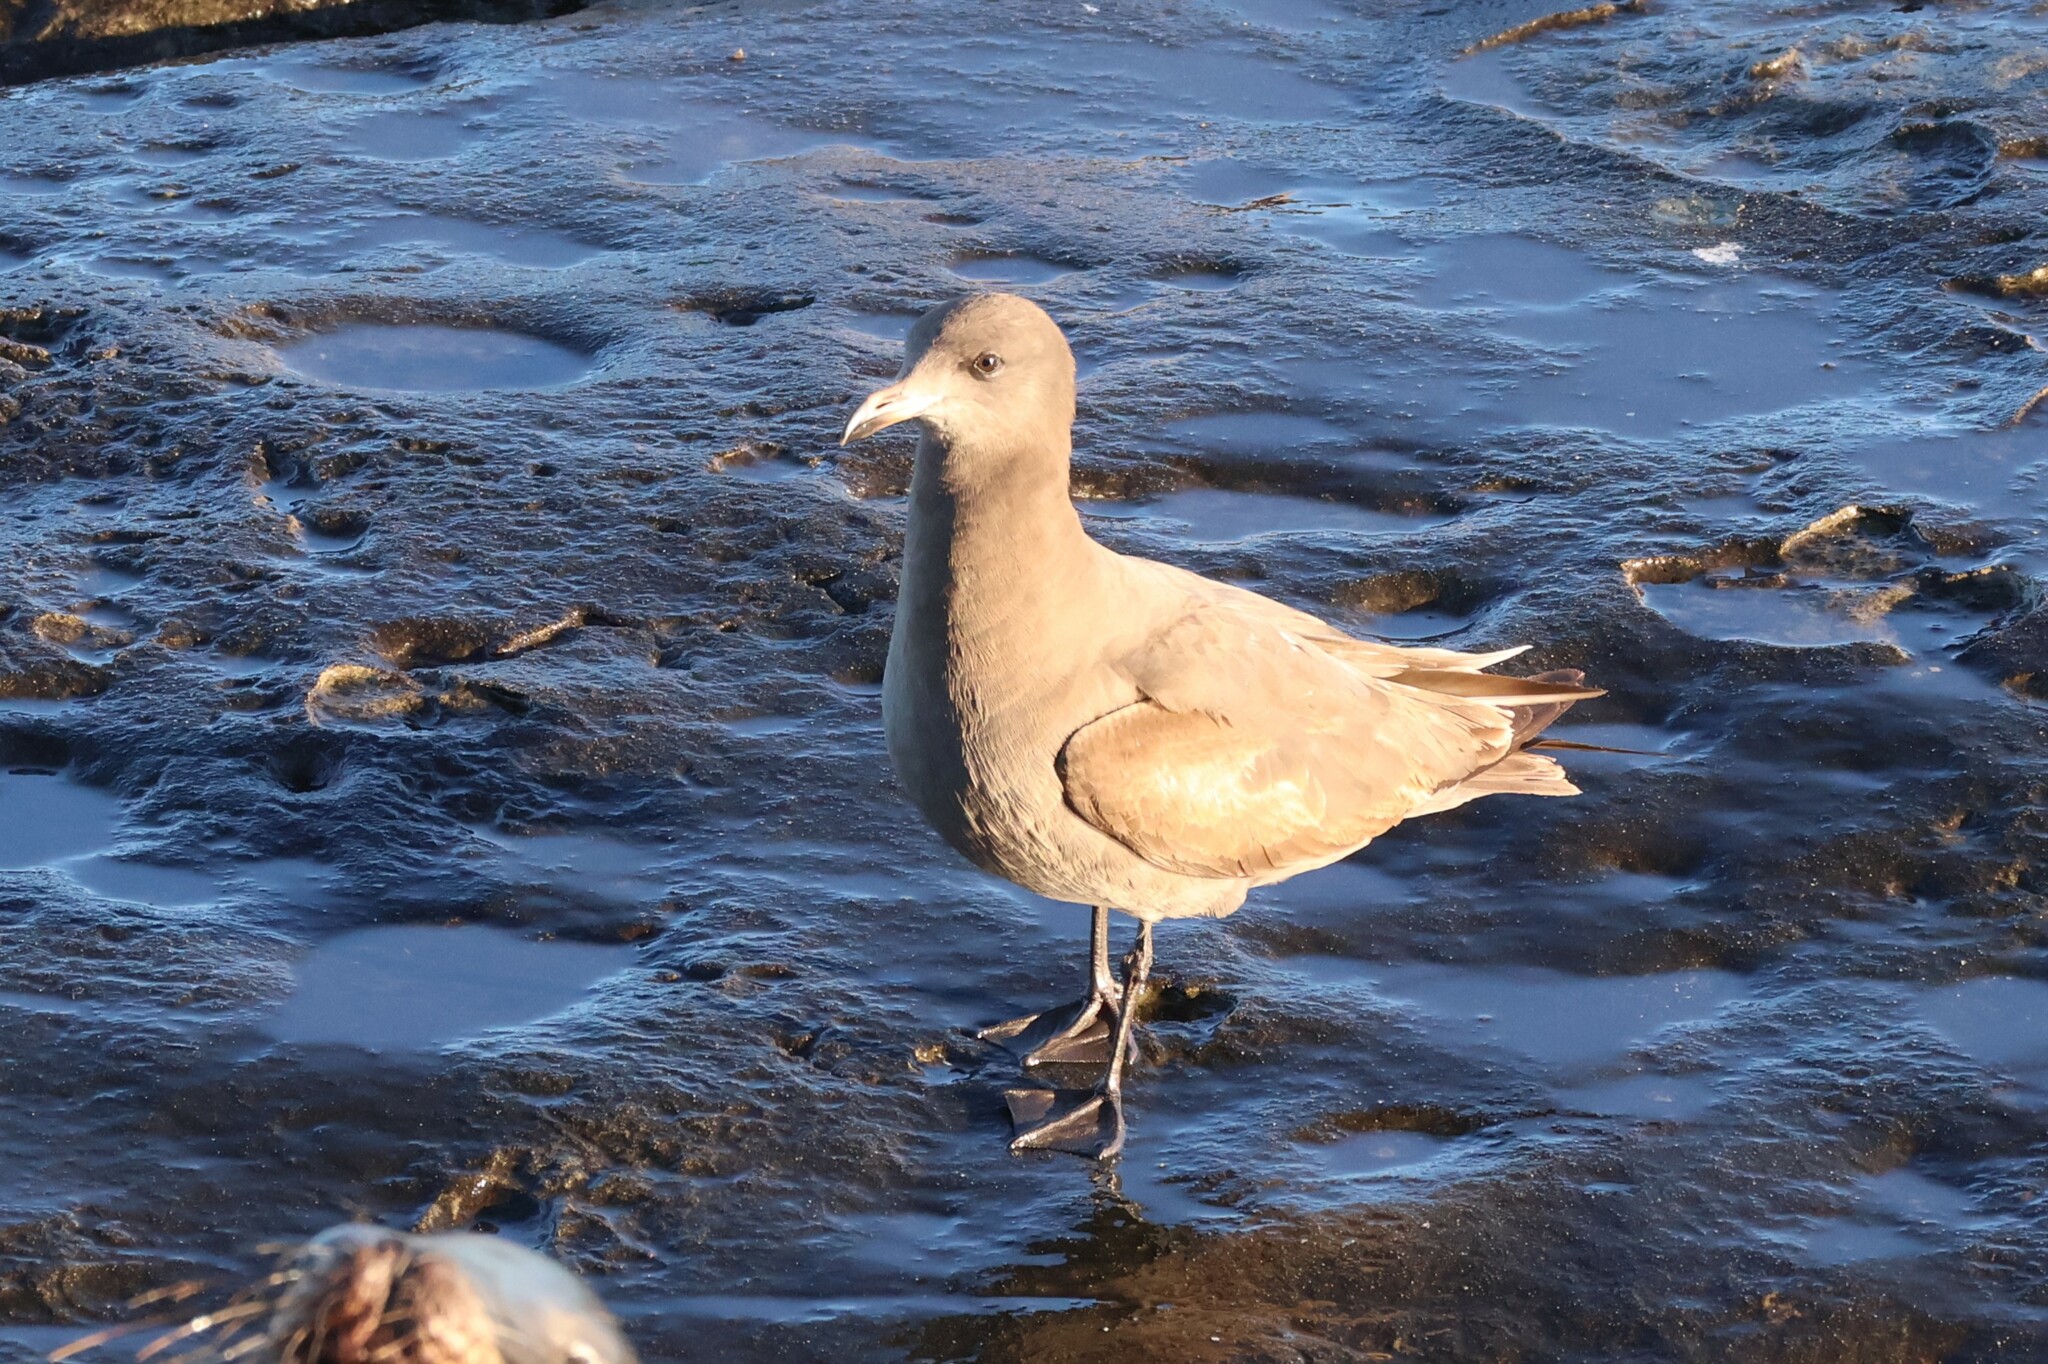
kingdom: Animalia
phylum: Chordata
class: Aves
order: Charadriiformes
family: Laridae
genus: Larus
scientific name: Larus heermanni
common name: Heermann's gull
